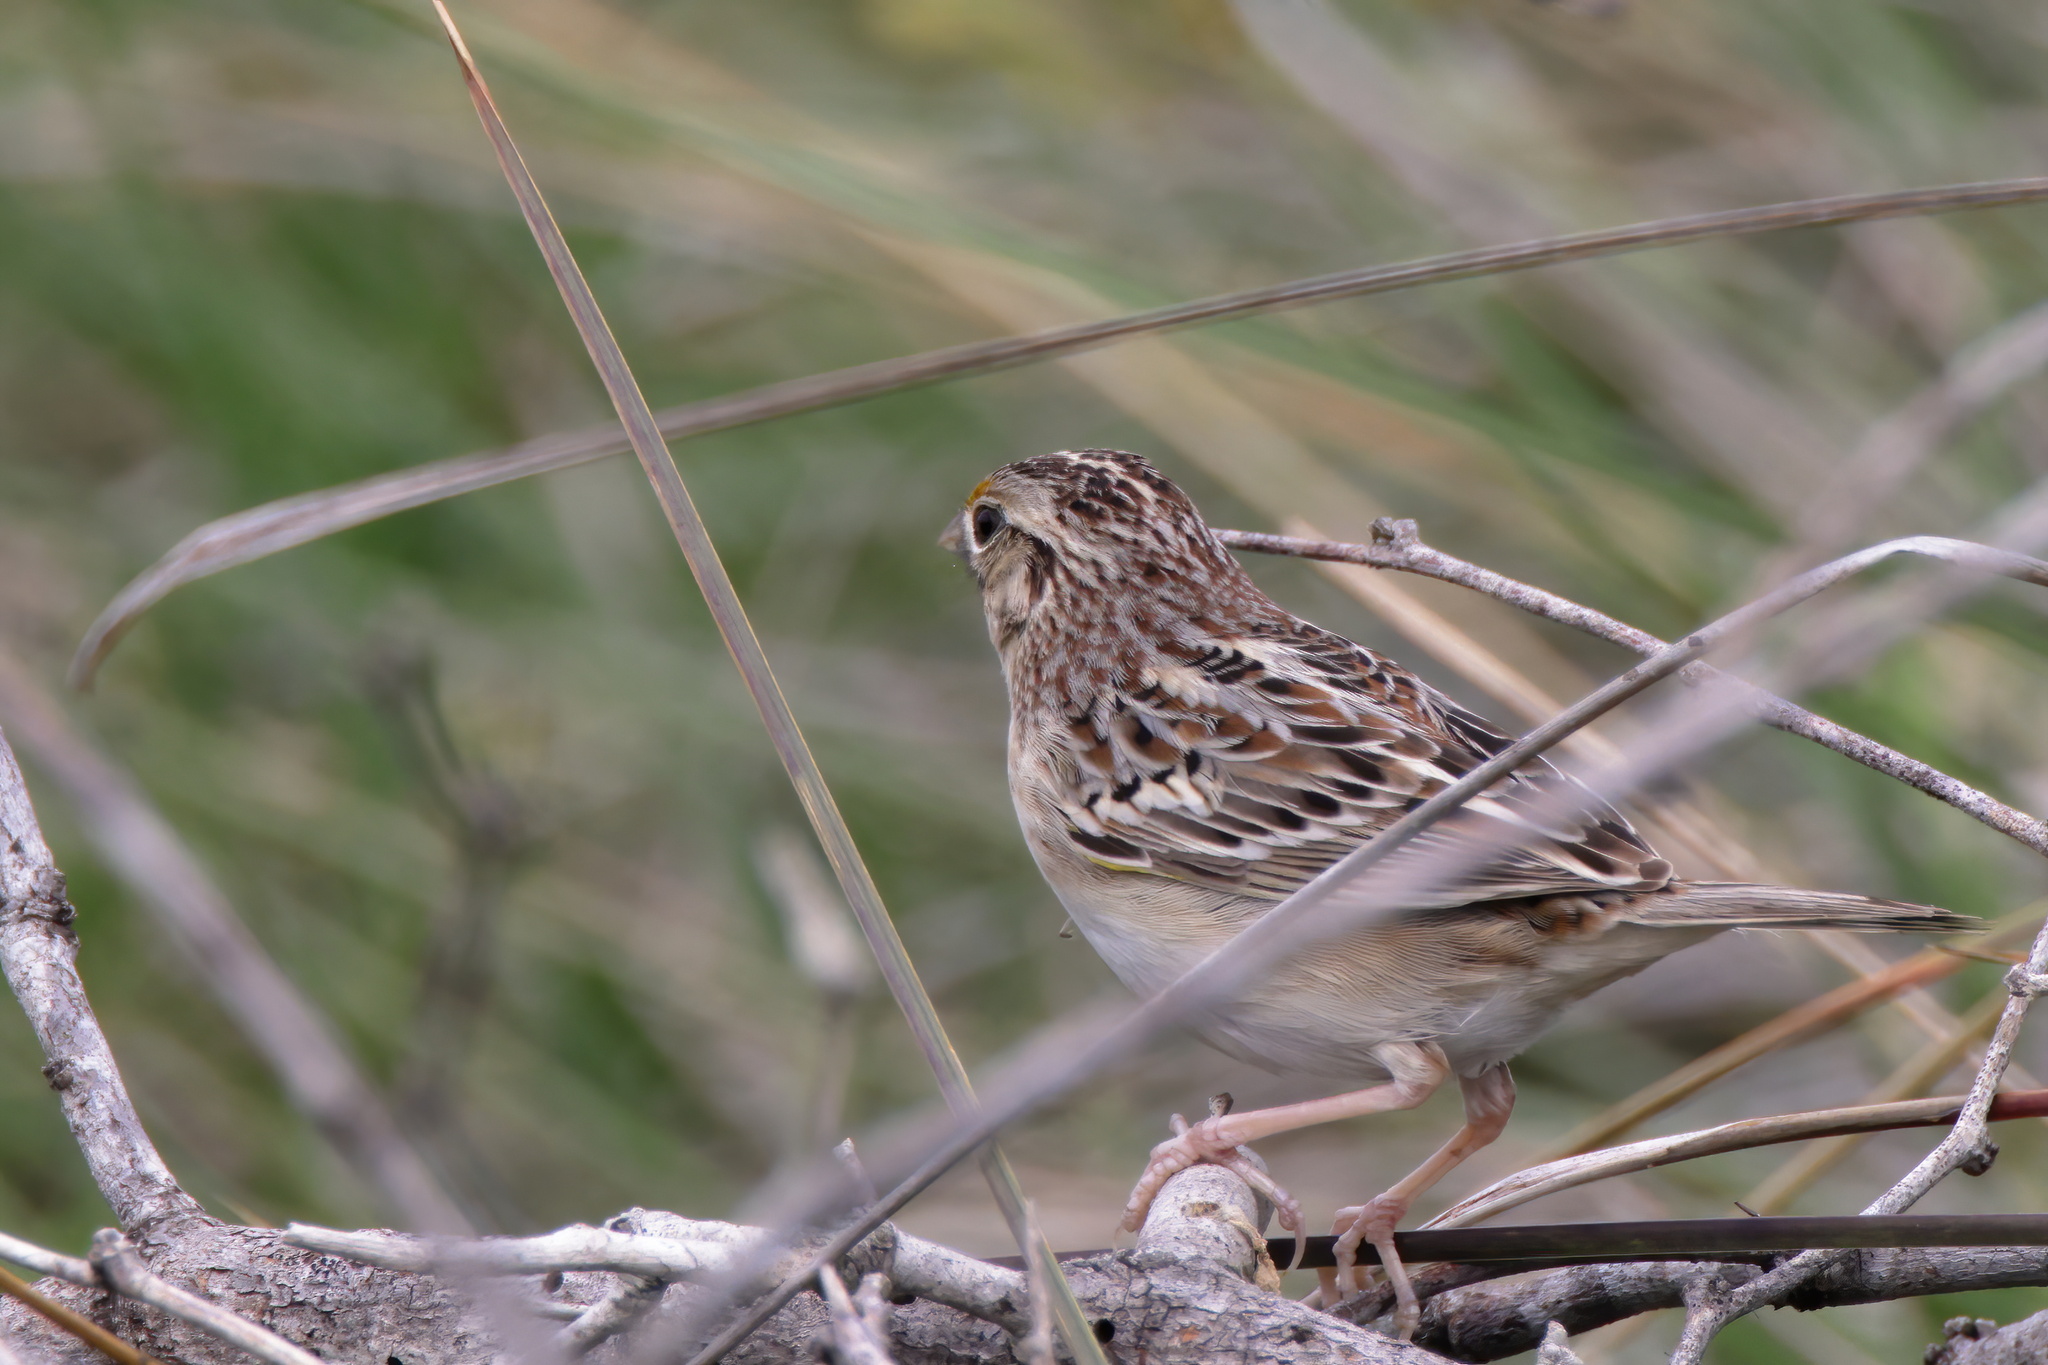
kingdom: Animalia
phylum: Chordata
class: Aves
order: Passeriformes
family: Passerellidae
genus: Ammodramus
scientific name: Ammodramus savannarum
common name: Grasshopper sparrow
